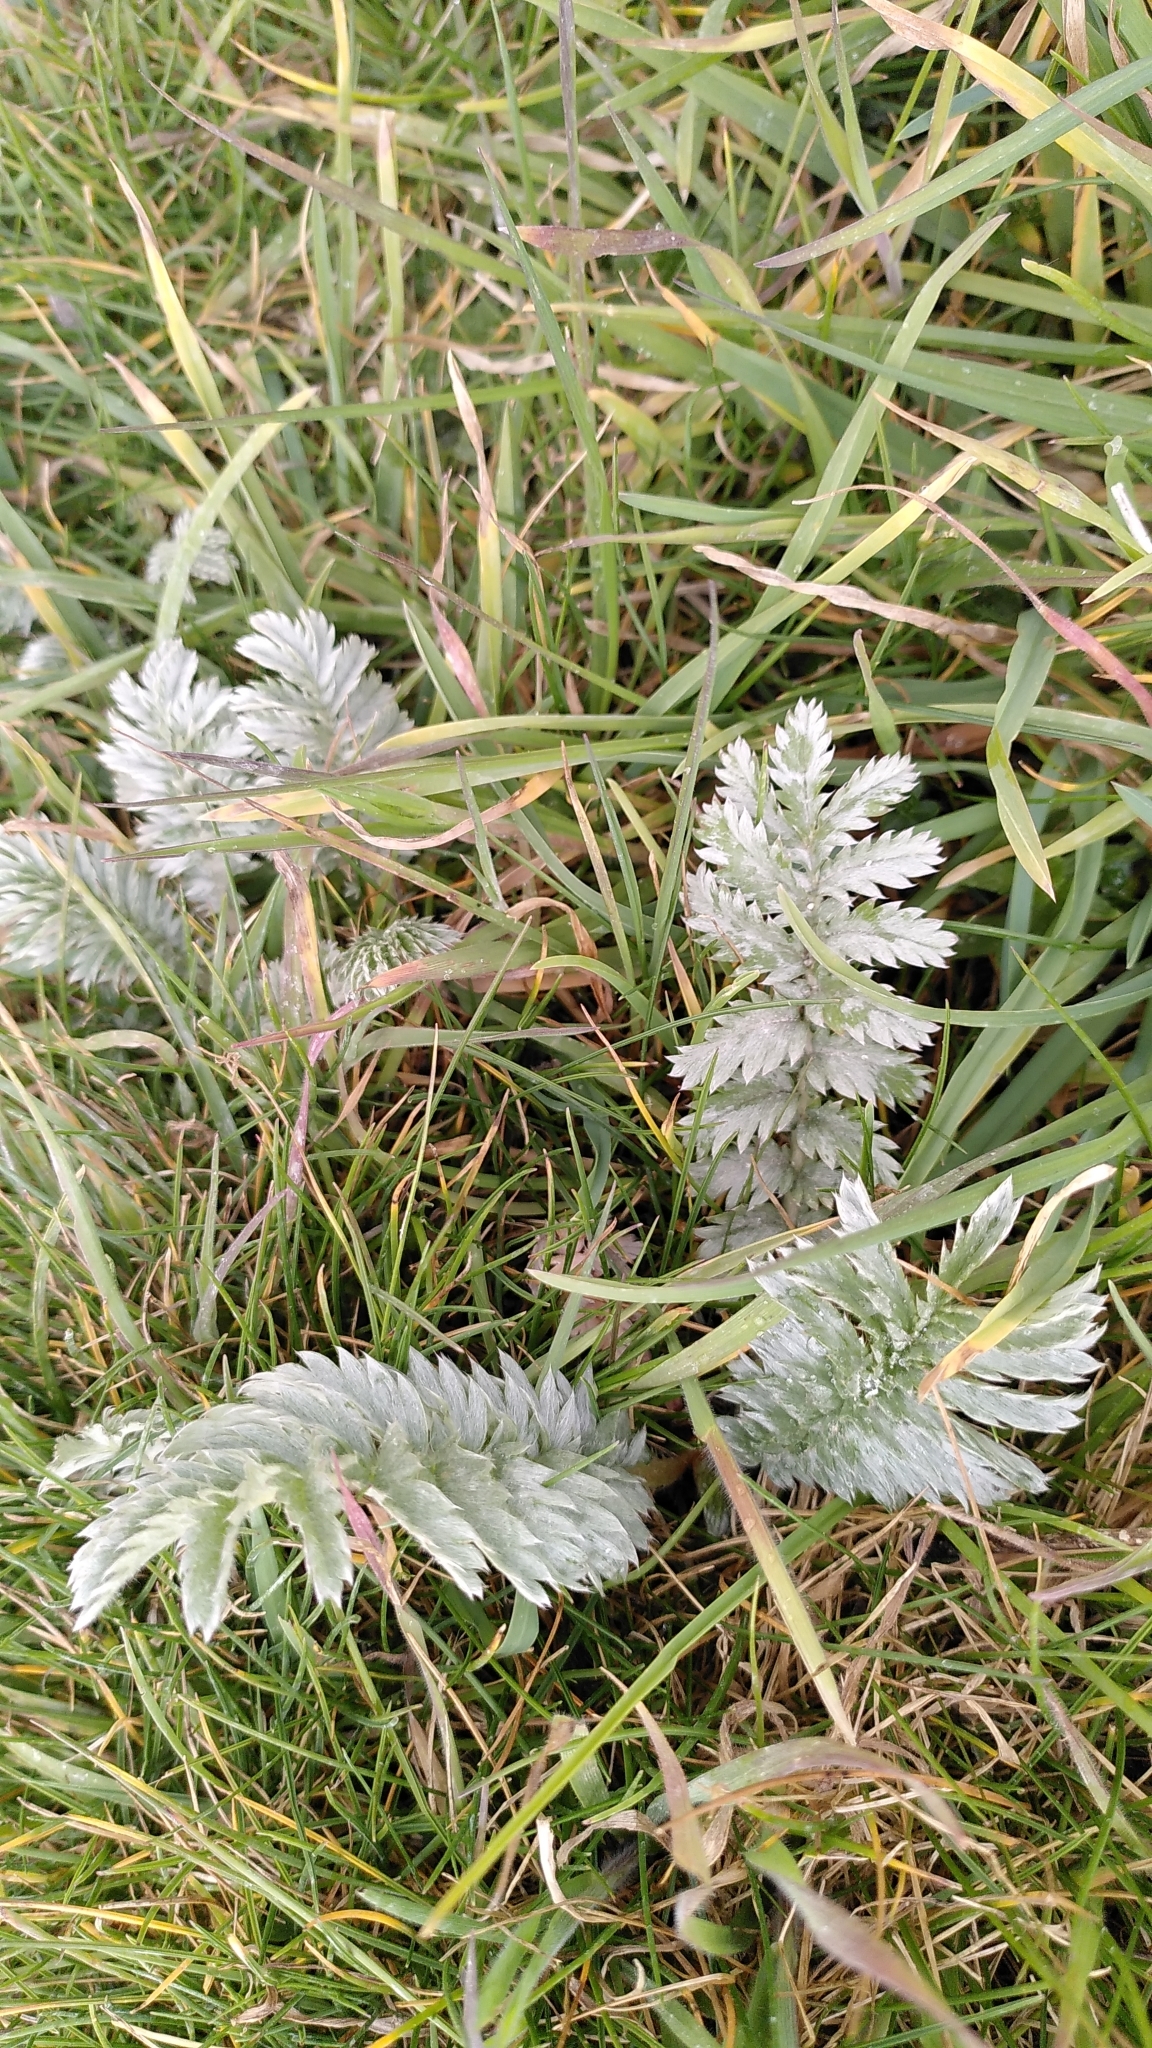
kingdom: Plantae
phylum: Tracheophyta
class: Magnoliopsida
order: Rosales
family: Rosaceae
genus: Argentina
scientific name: Argentina anserina
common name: Common silverweed
